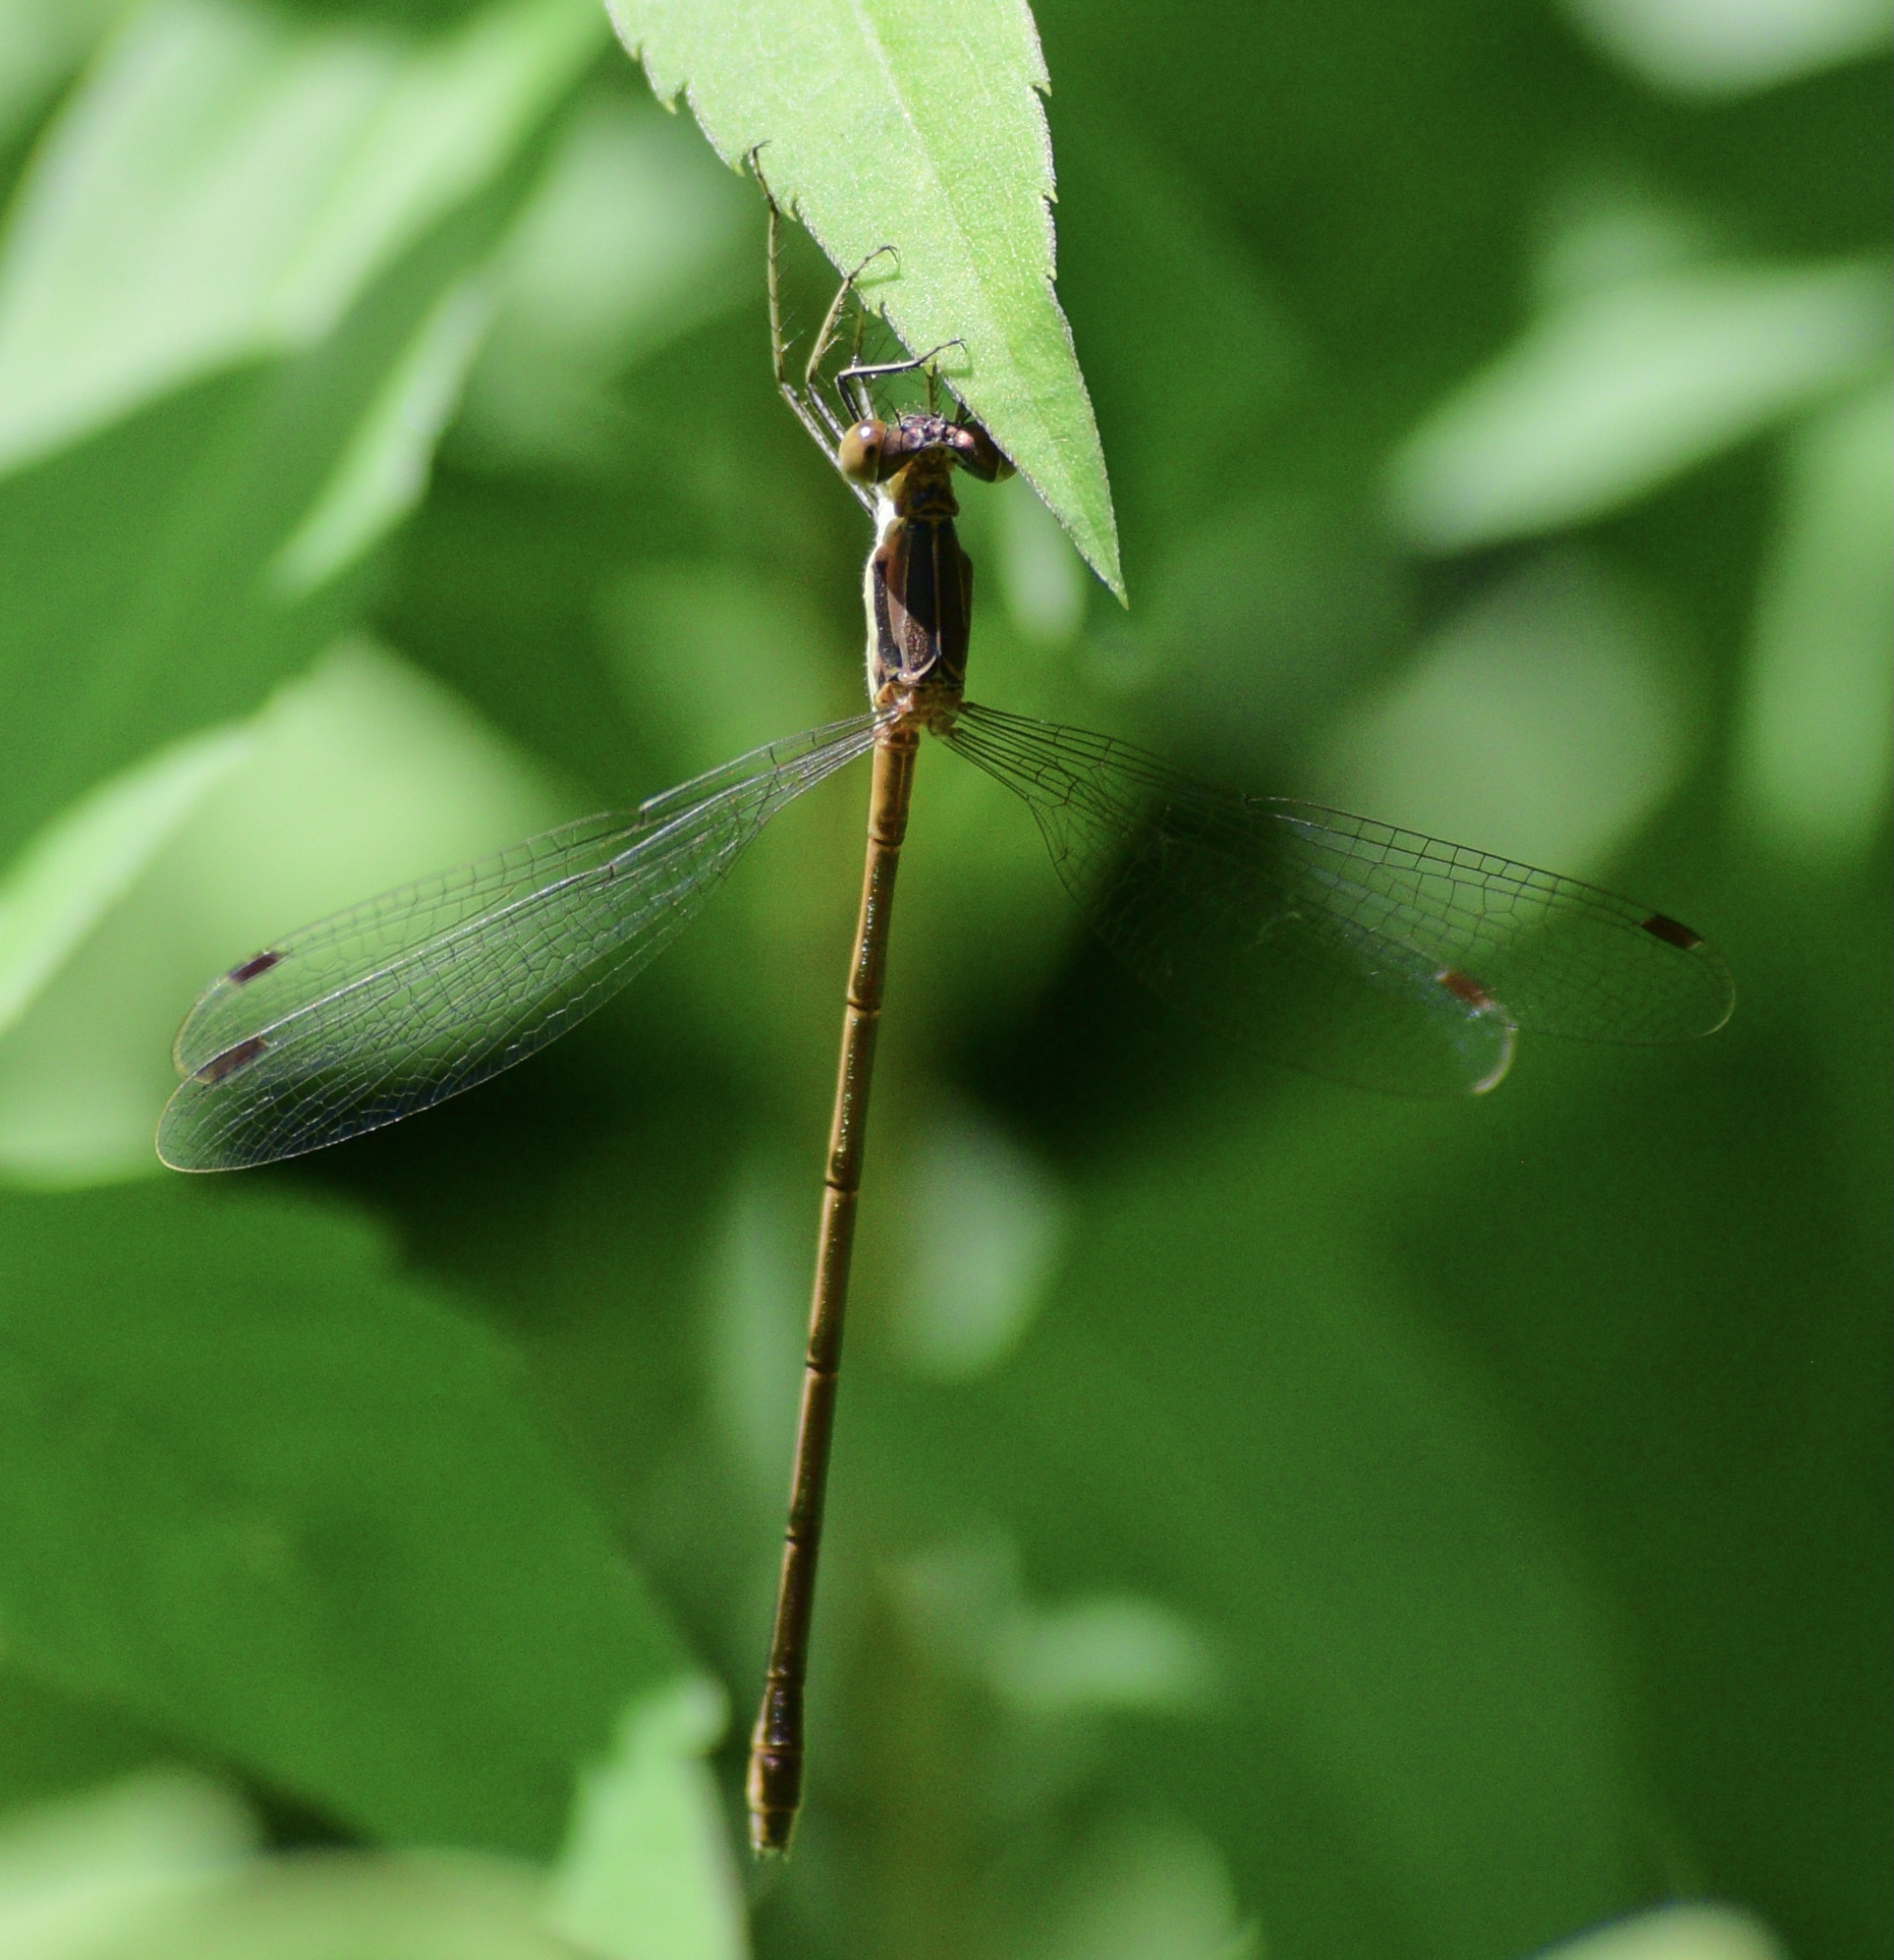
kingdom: Animalia
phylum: Arthropoda
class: Insecta
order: Odonata
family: Lestidae
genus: Lestes
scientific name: Lestes rectangularis
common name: Slender spreadwing
